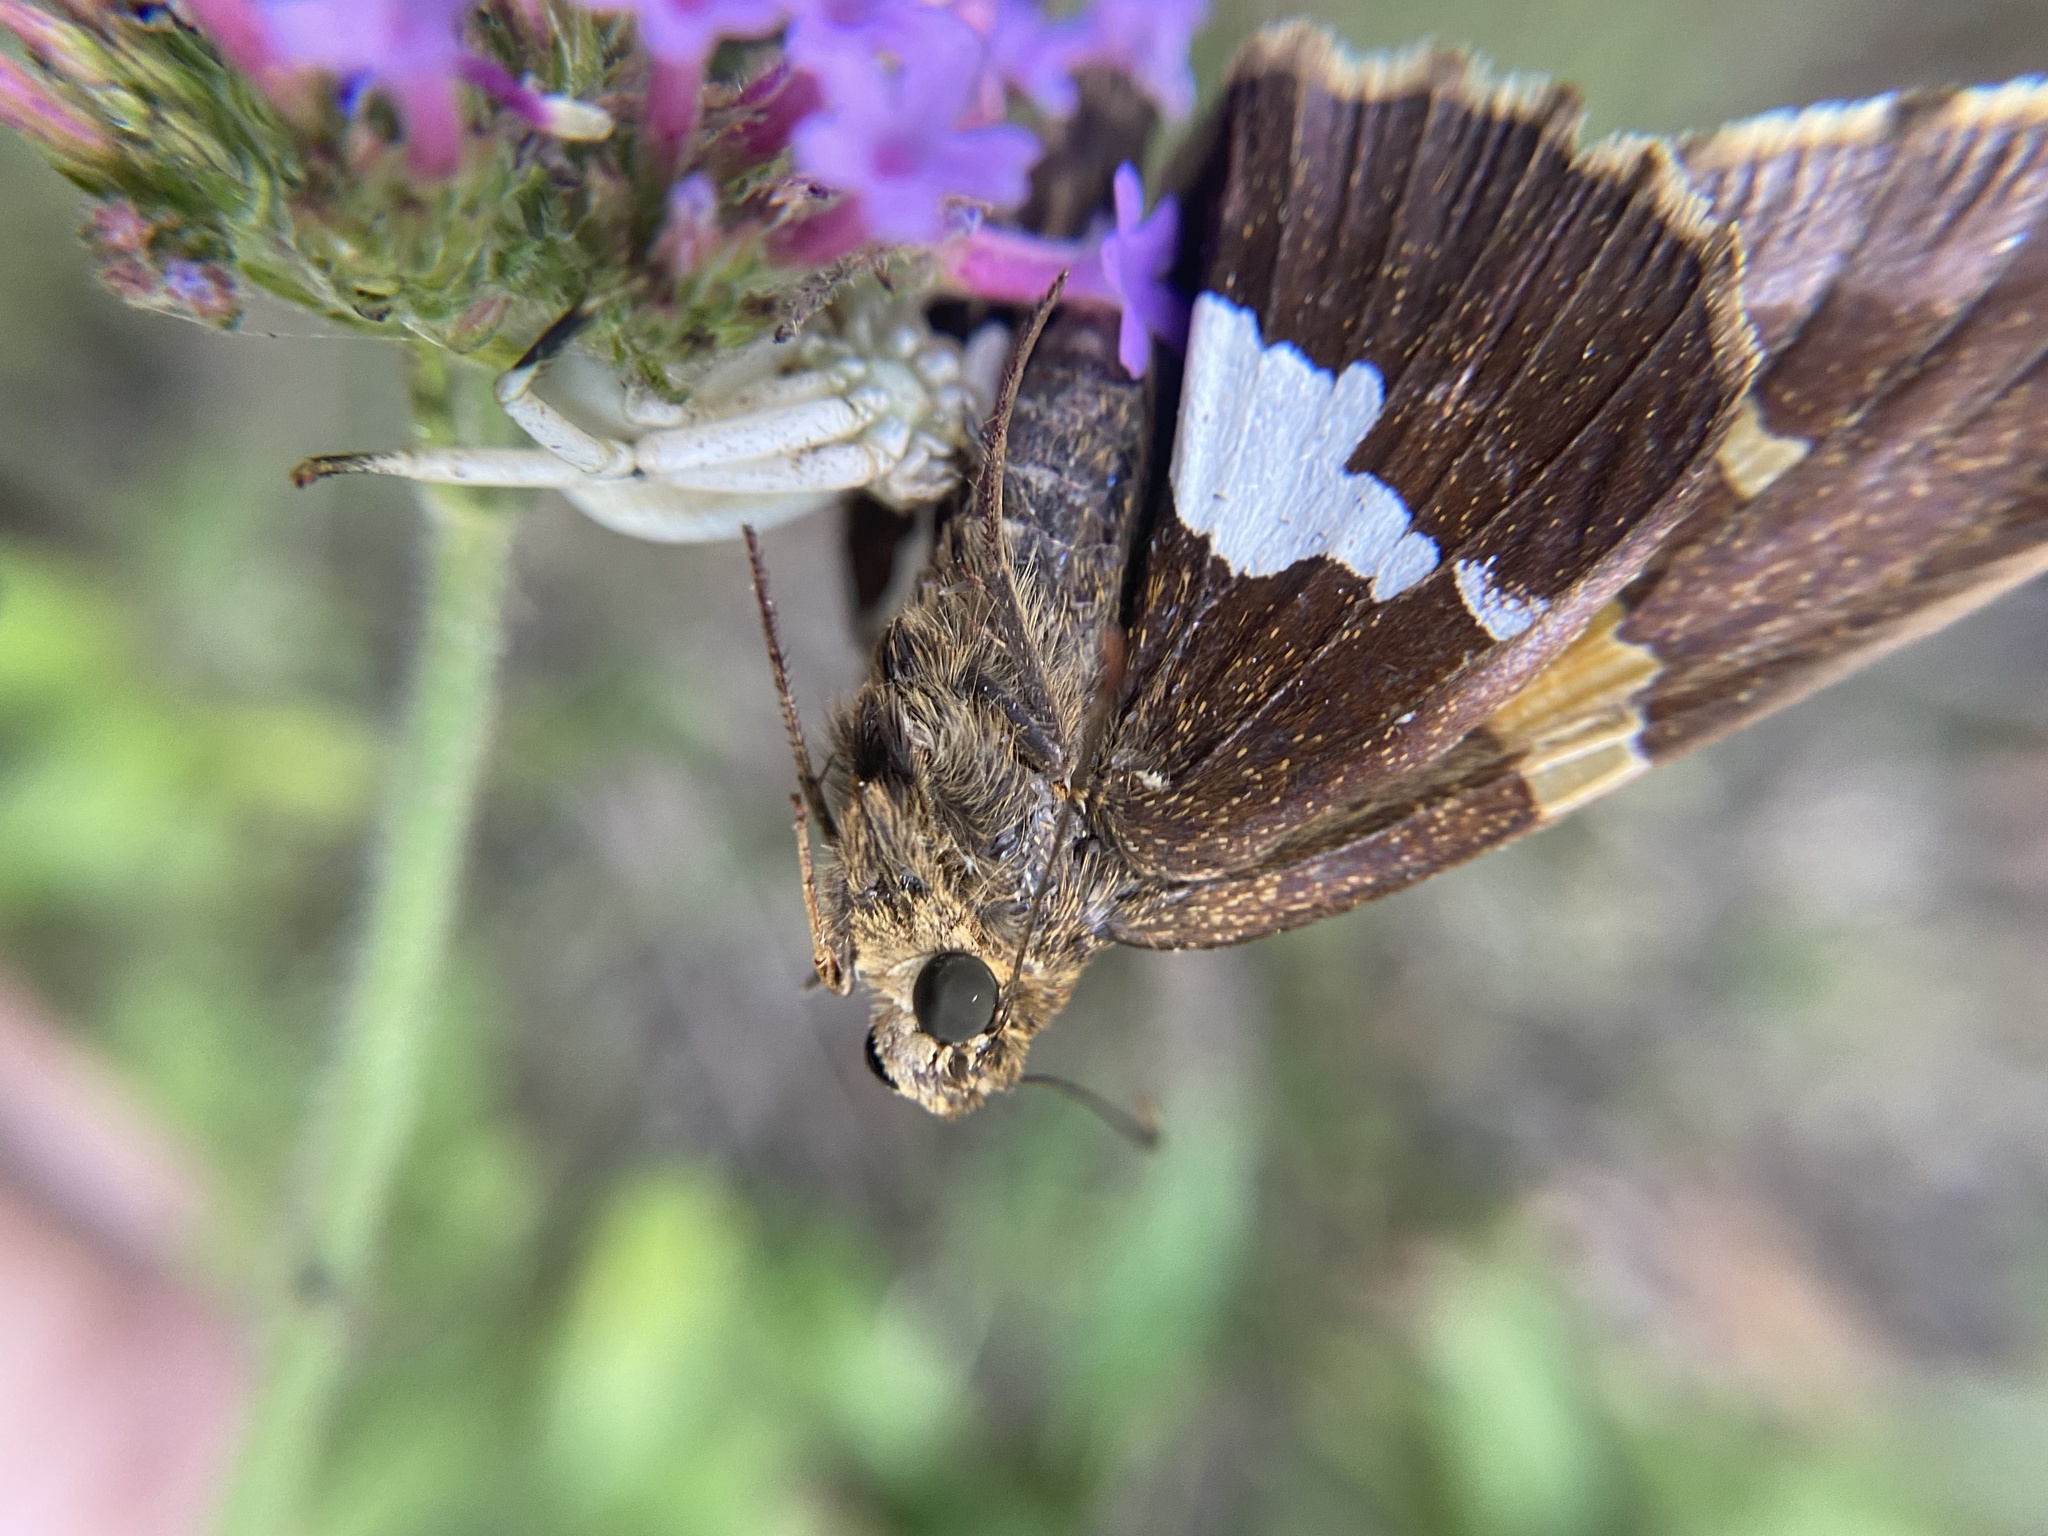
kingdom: Animalia
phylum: Arthropoda
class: Insecta
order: Lepidoptera
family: Hesperiidae
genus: Epargyreus
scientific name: Epargyreus clarus
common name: Silver-spotted skipper
